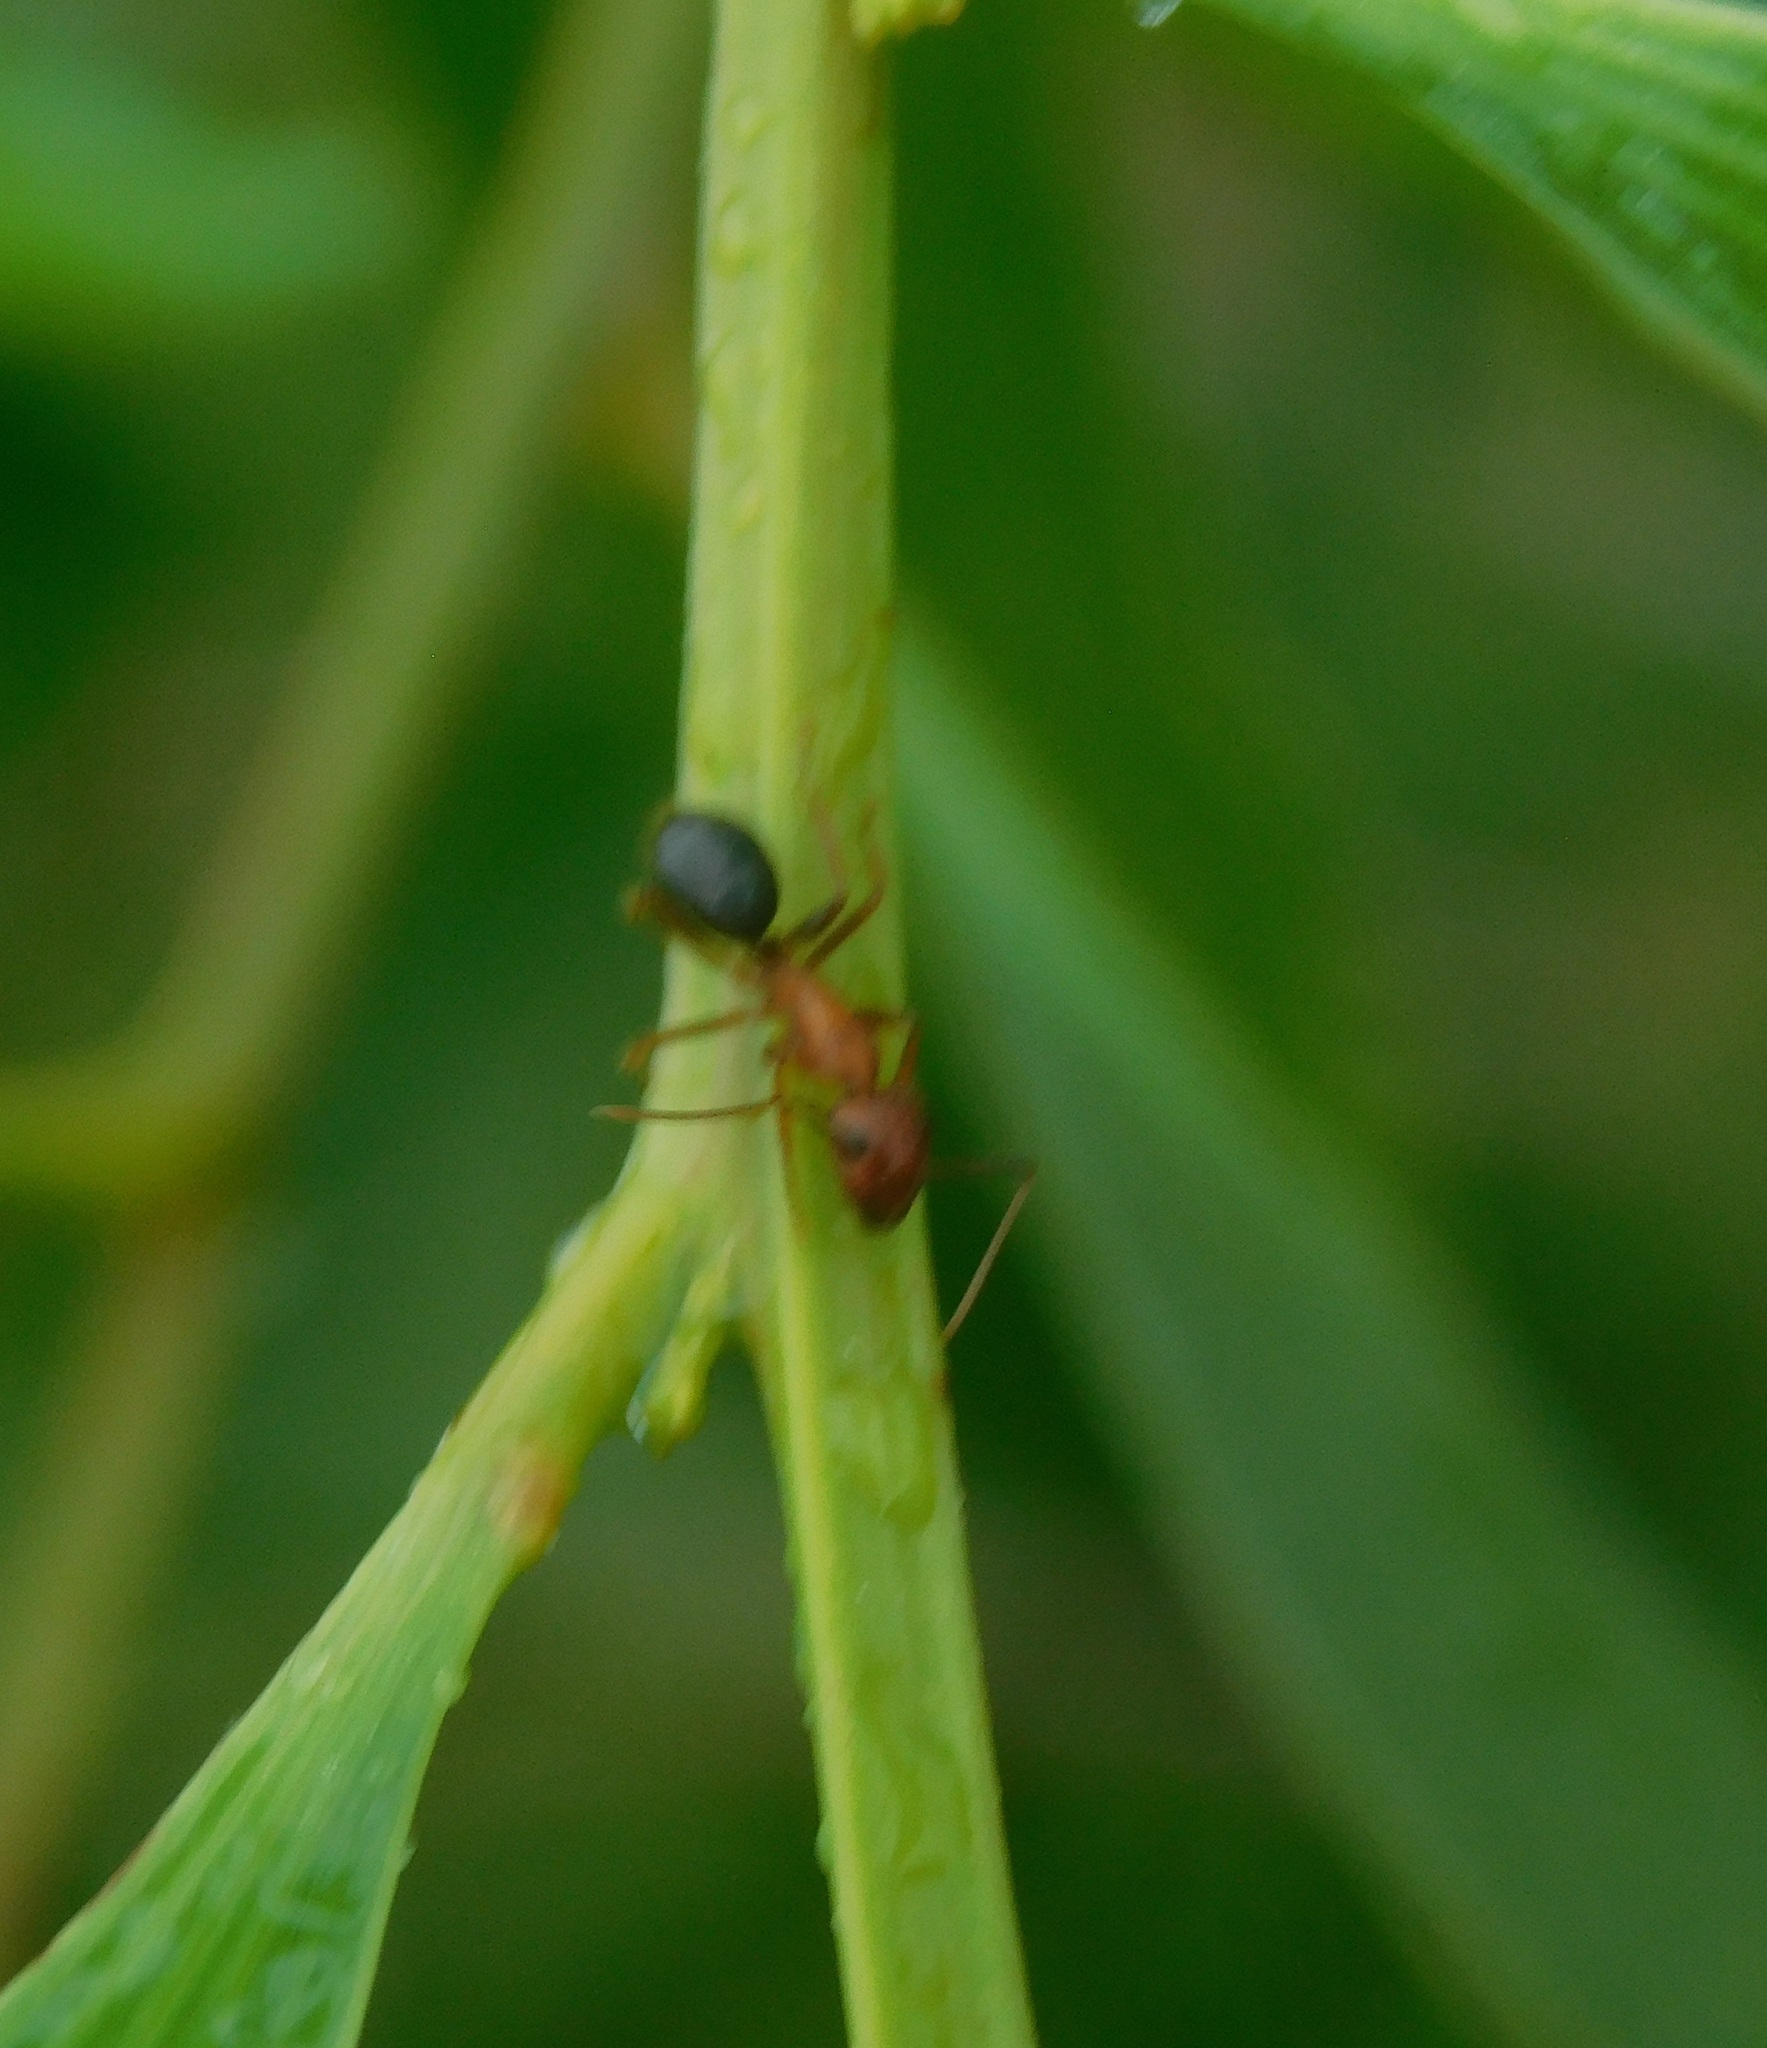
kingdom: Animalia
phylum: Arthropoda
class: Insecta
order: Hymenoptera
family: Formicidae
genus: Camponotus
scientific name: Camponotus floridanus
